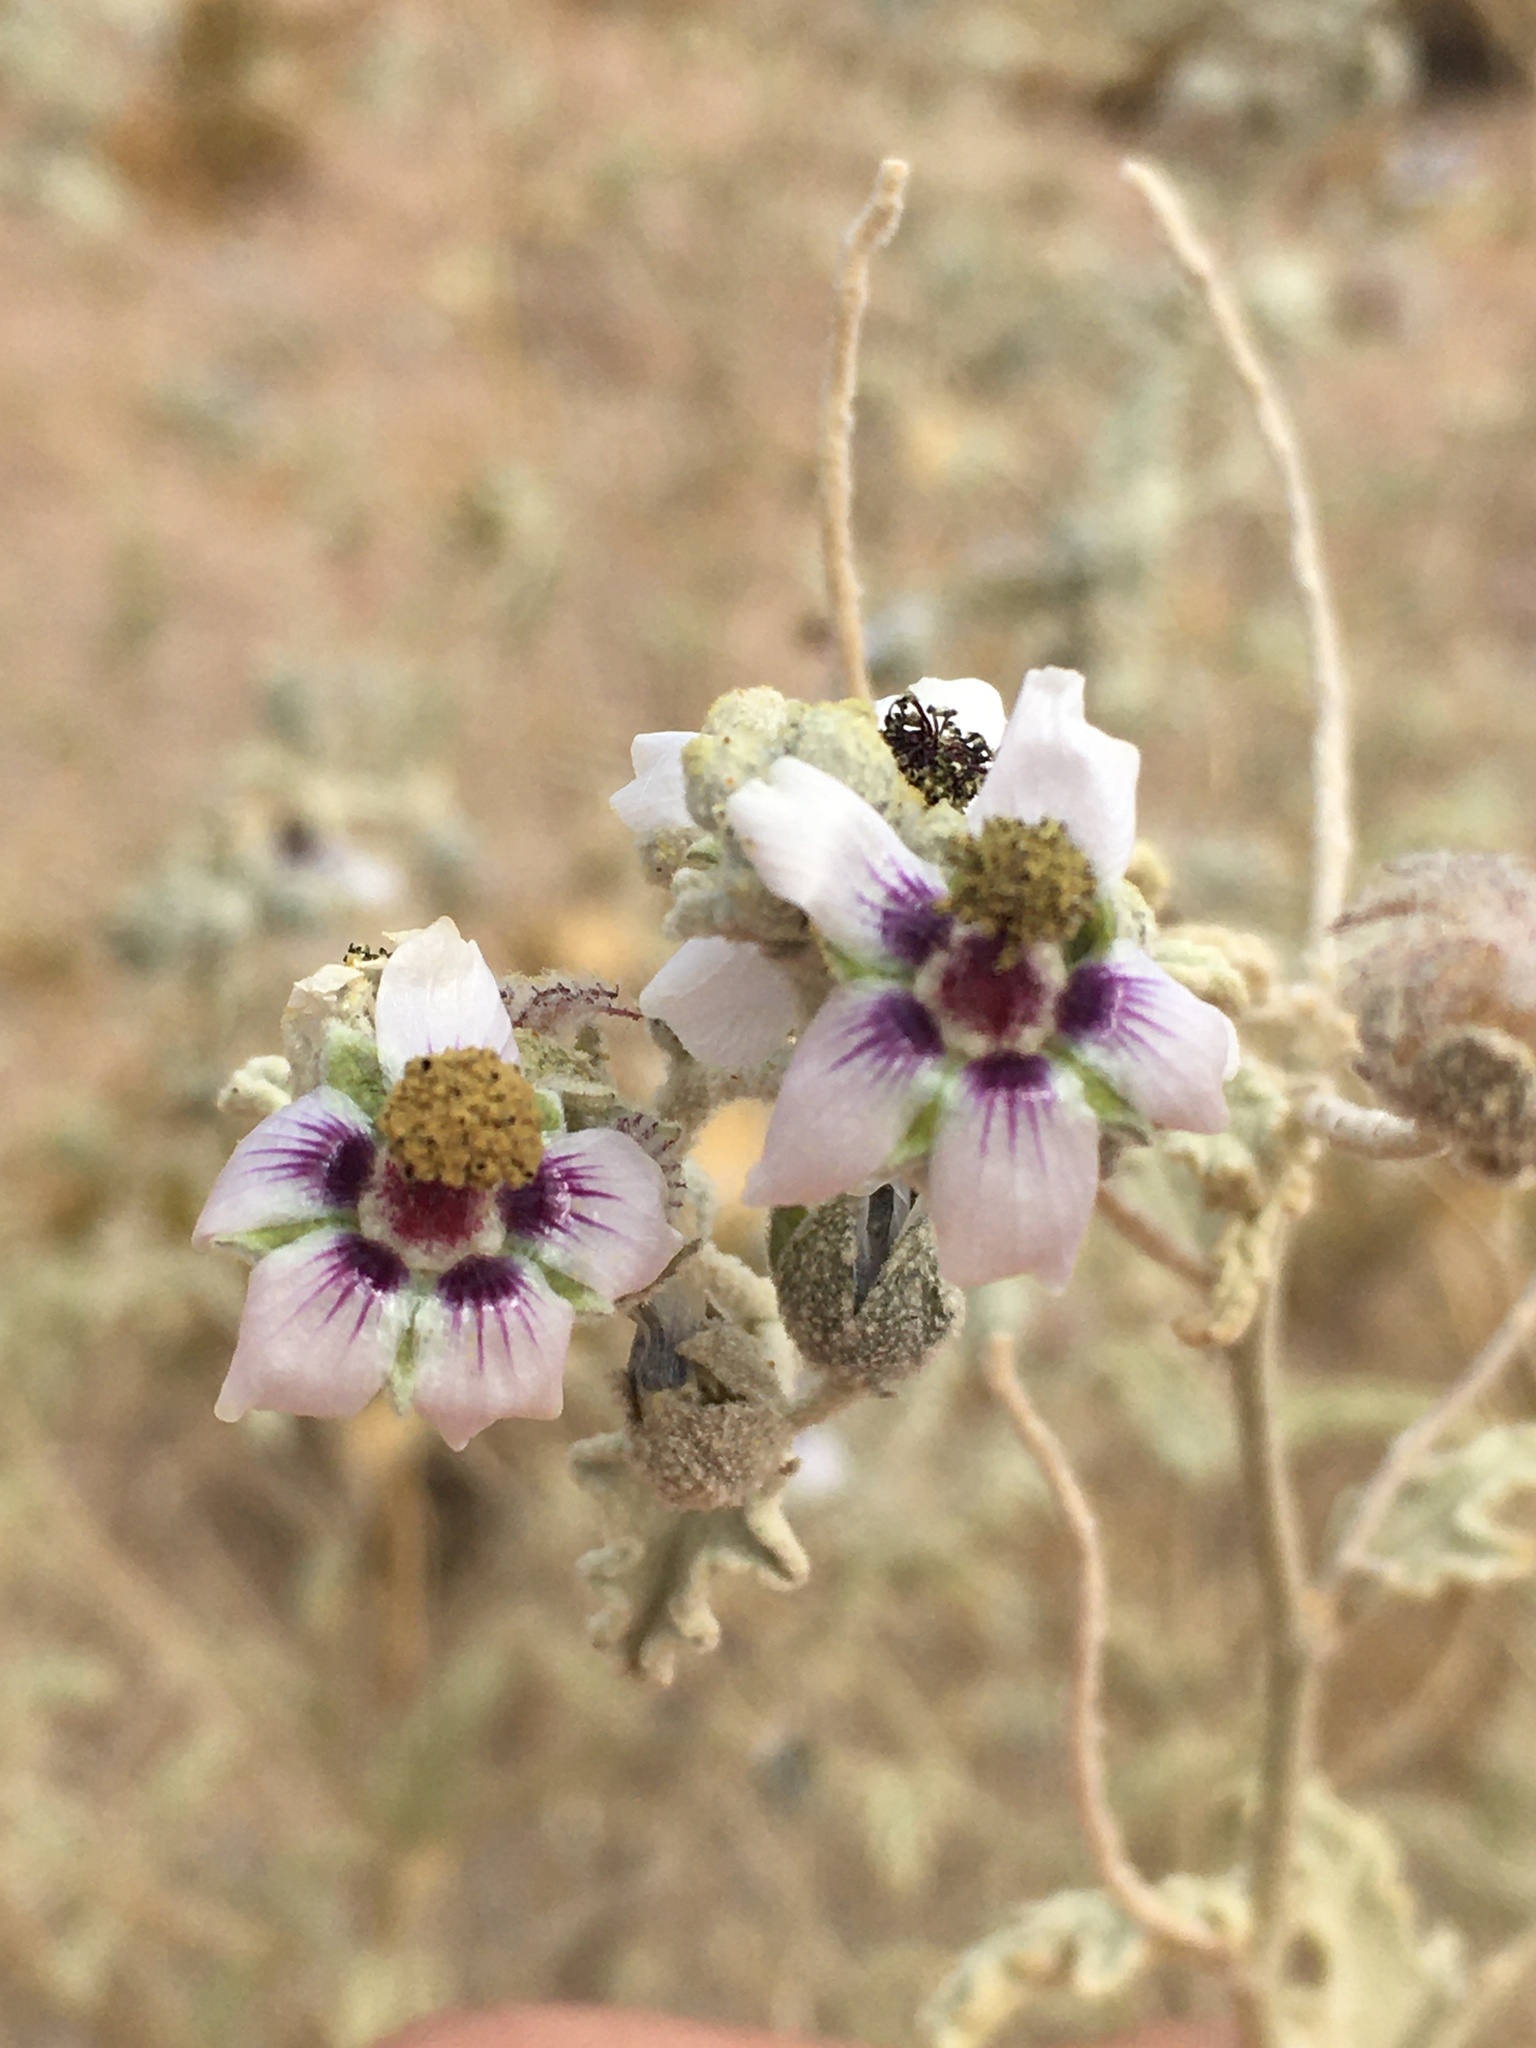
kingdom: Plantae
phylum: Tracheophyta
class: Magnoliopsida
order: Malvales
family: Malvaceae
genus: Tarasa
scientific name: Tarasa operculata
